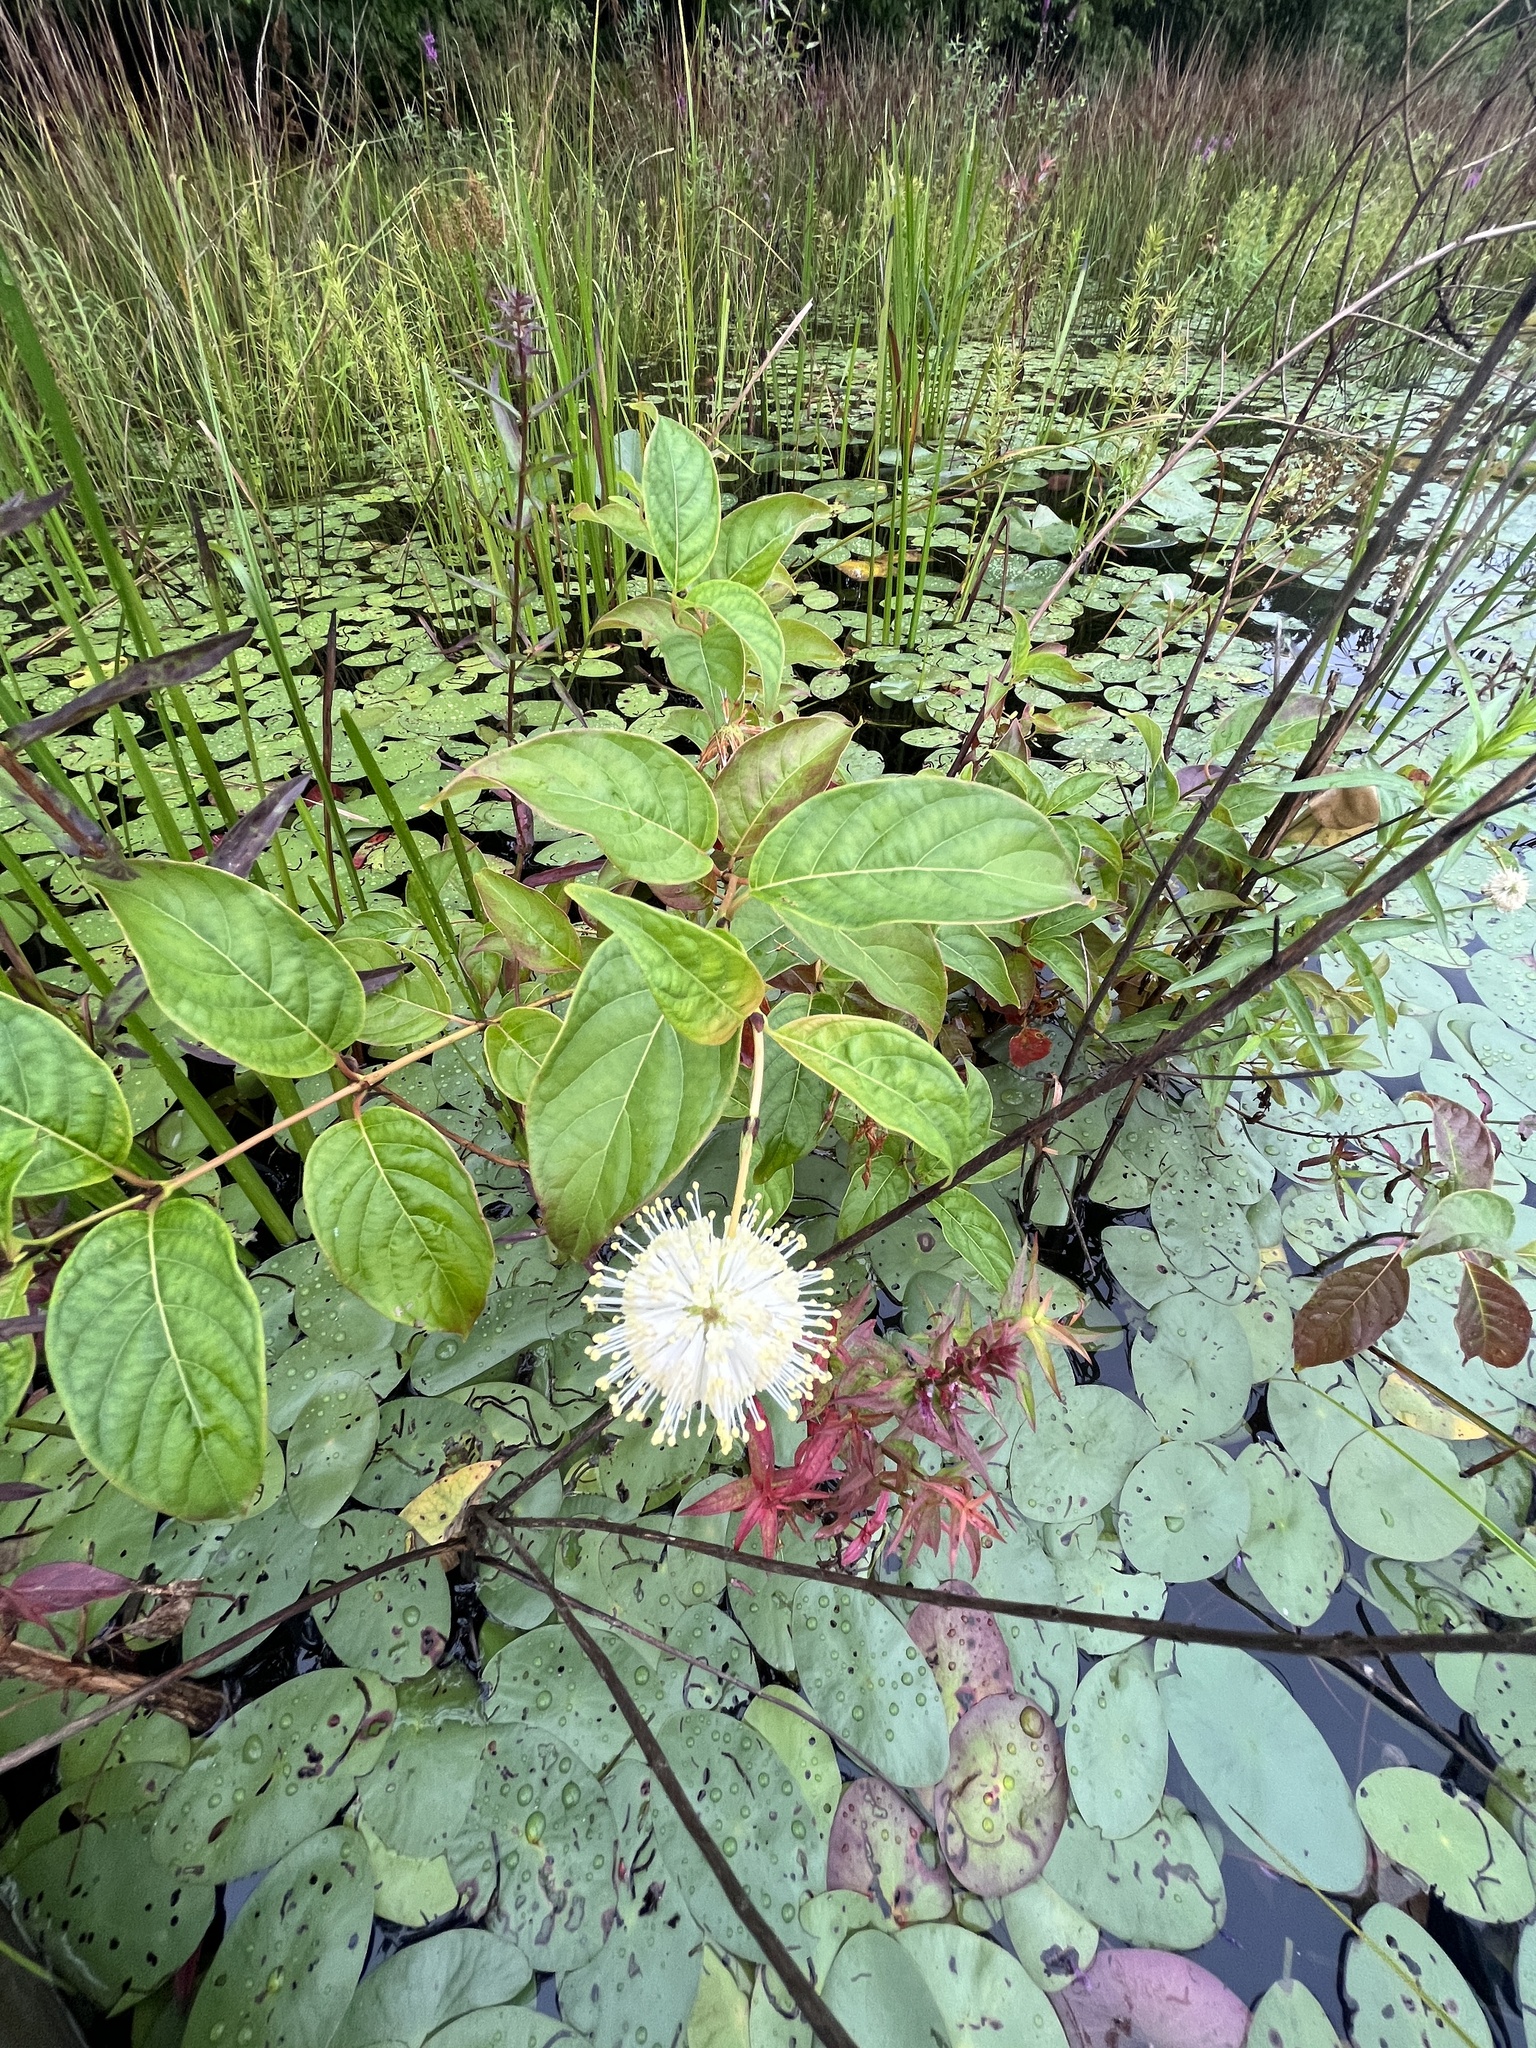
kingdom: Plantae
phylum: Tracheophyta
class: Magnoliopsida
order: Gentianales
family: Rubiaceae
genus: Cephalanthus
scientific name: Cephalanthus occidentalis
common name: Button-willow
